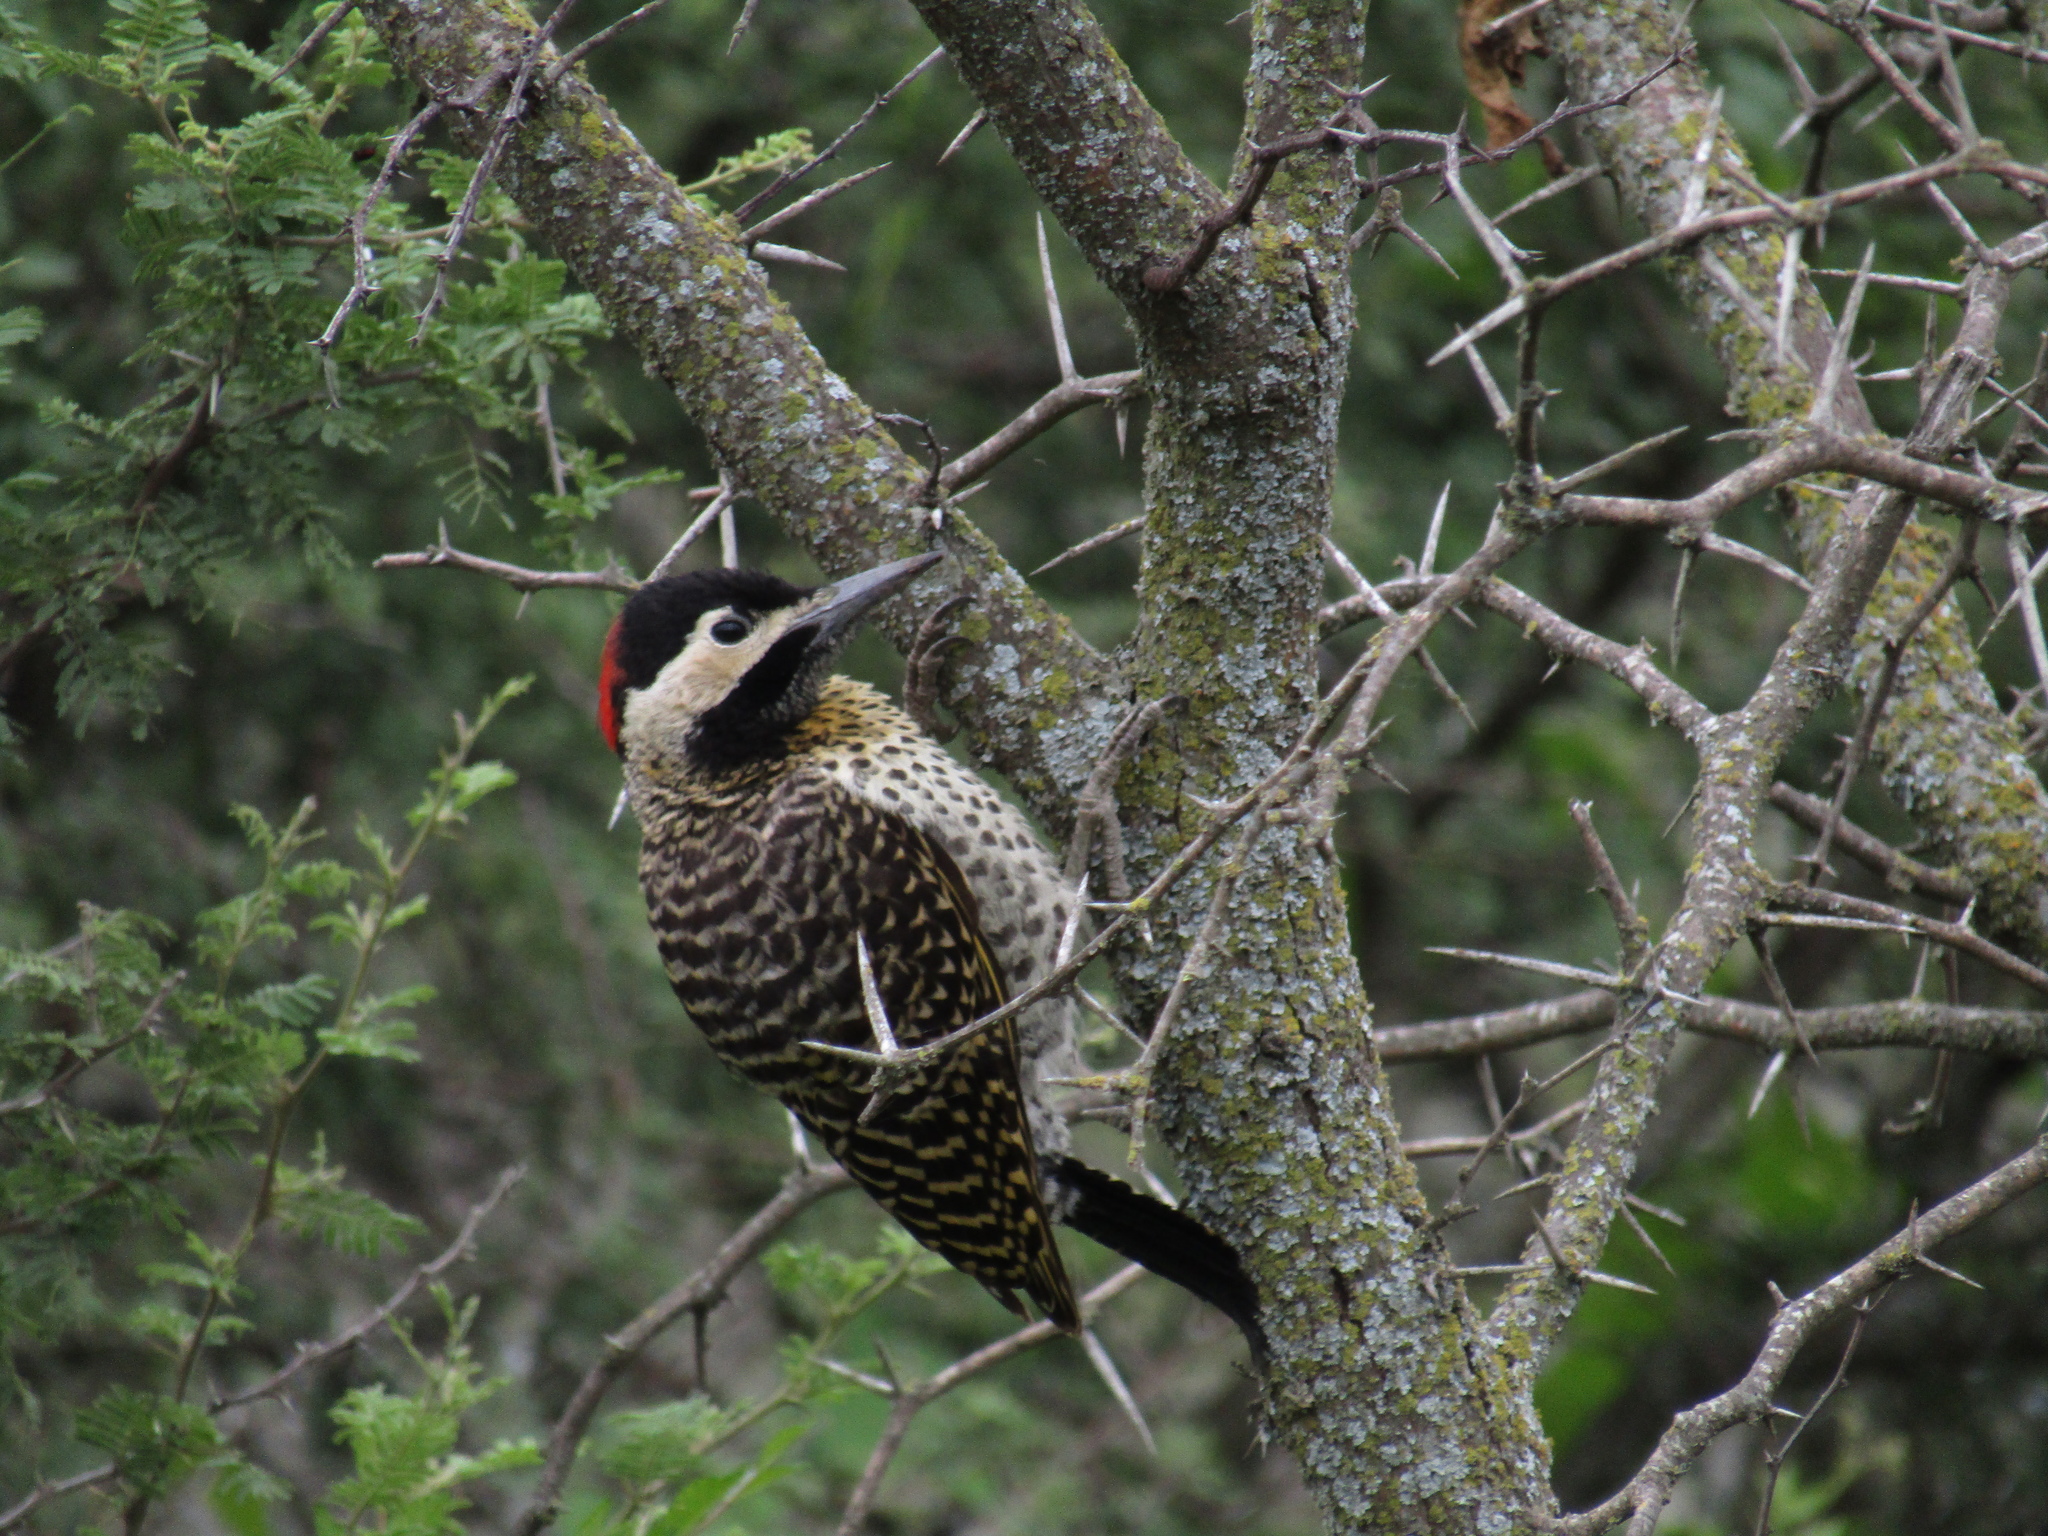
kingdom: Animalia
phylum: Chordata
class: Aves
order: Piciformes
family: Picidae
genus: Colaptes
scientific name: Colaptes melanochloros
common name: Green-barred woodpecker
